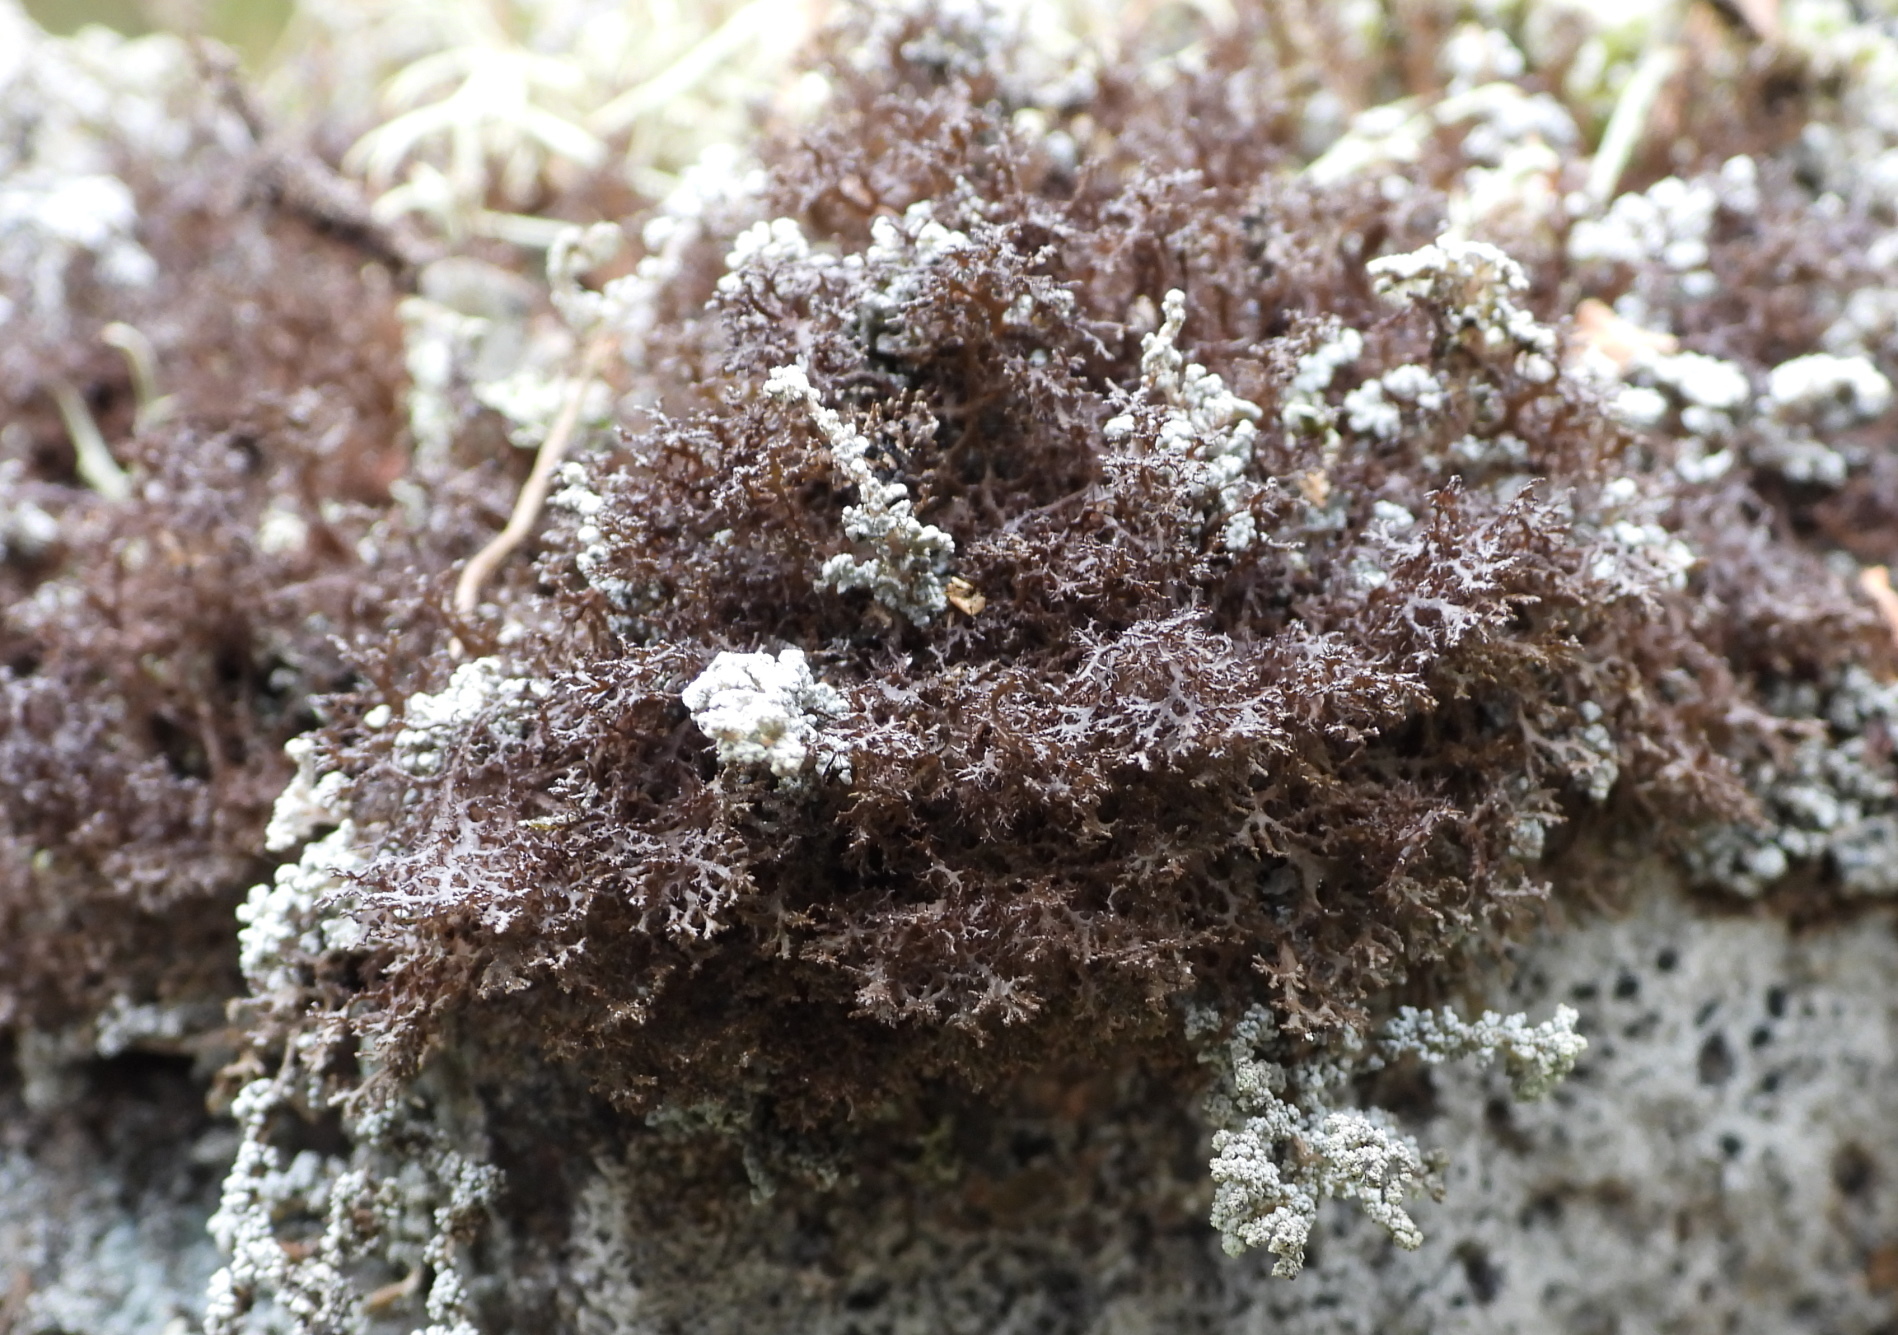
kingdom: Fungi
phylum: Ascomycota
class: Lecanoromycetes
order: Lecanorales
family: Parmeliaceae
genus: Cetraria
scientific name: Cetraria odontella
